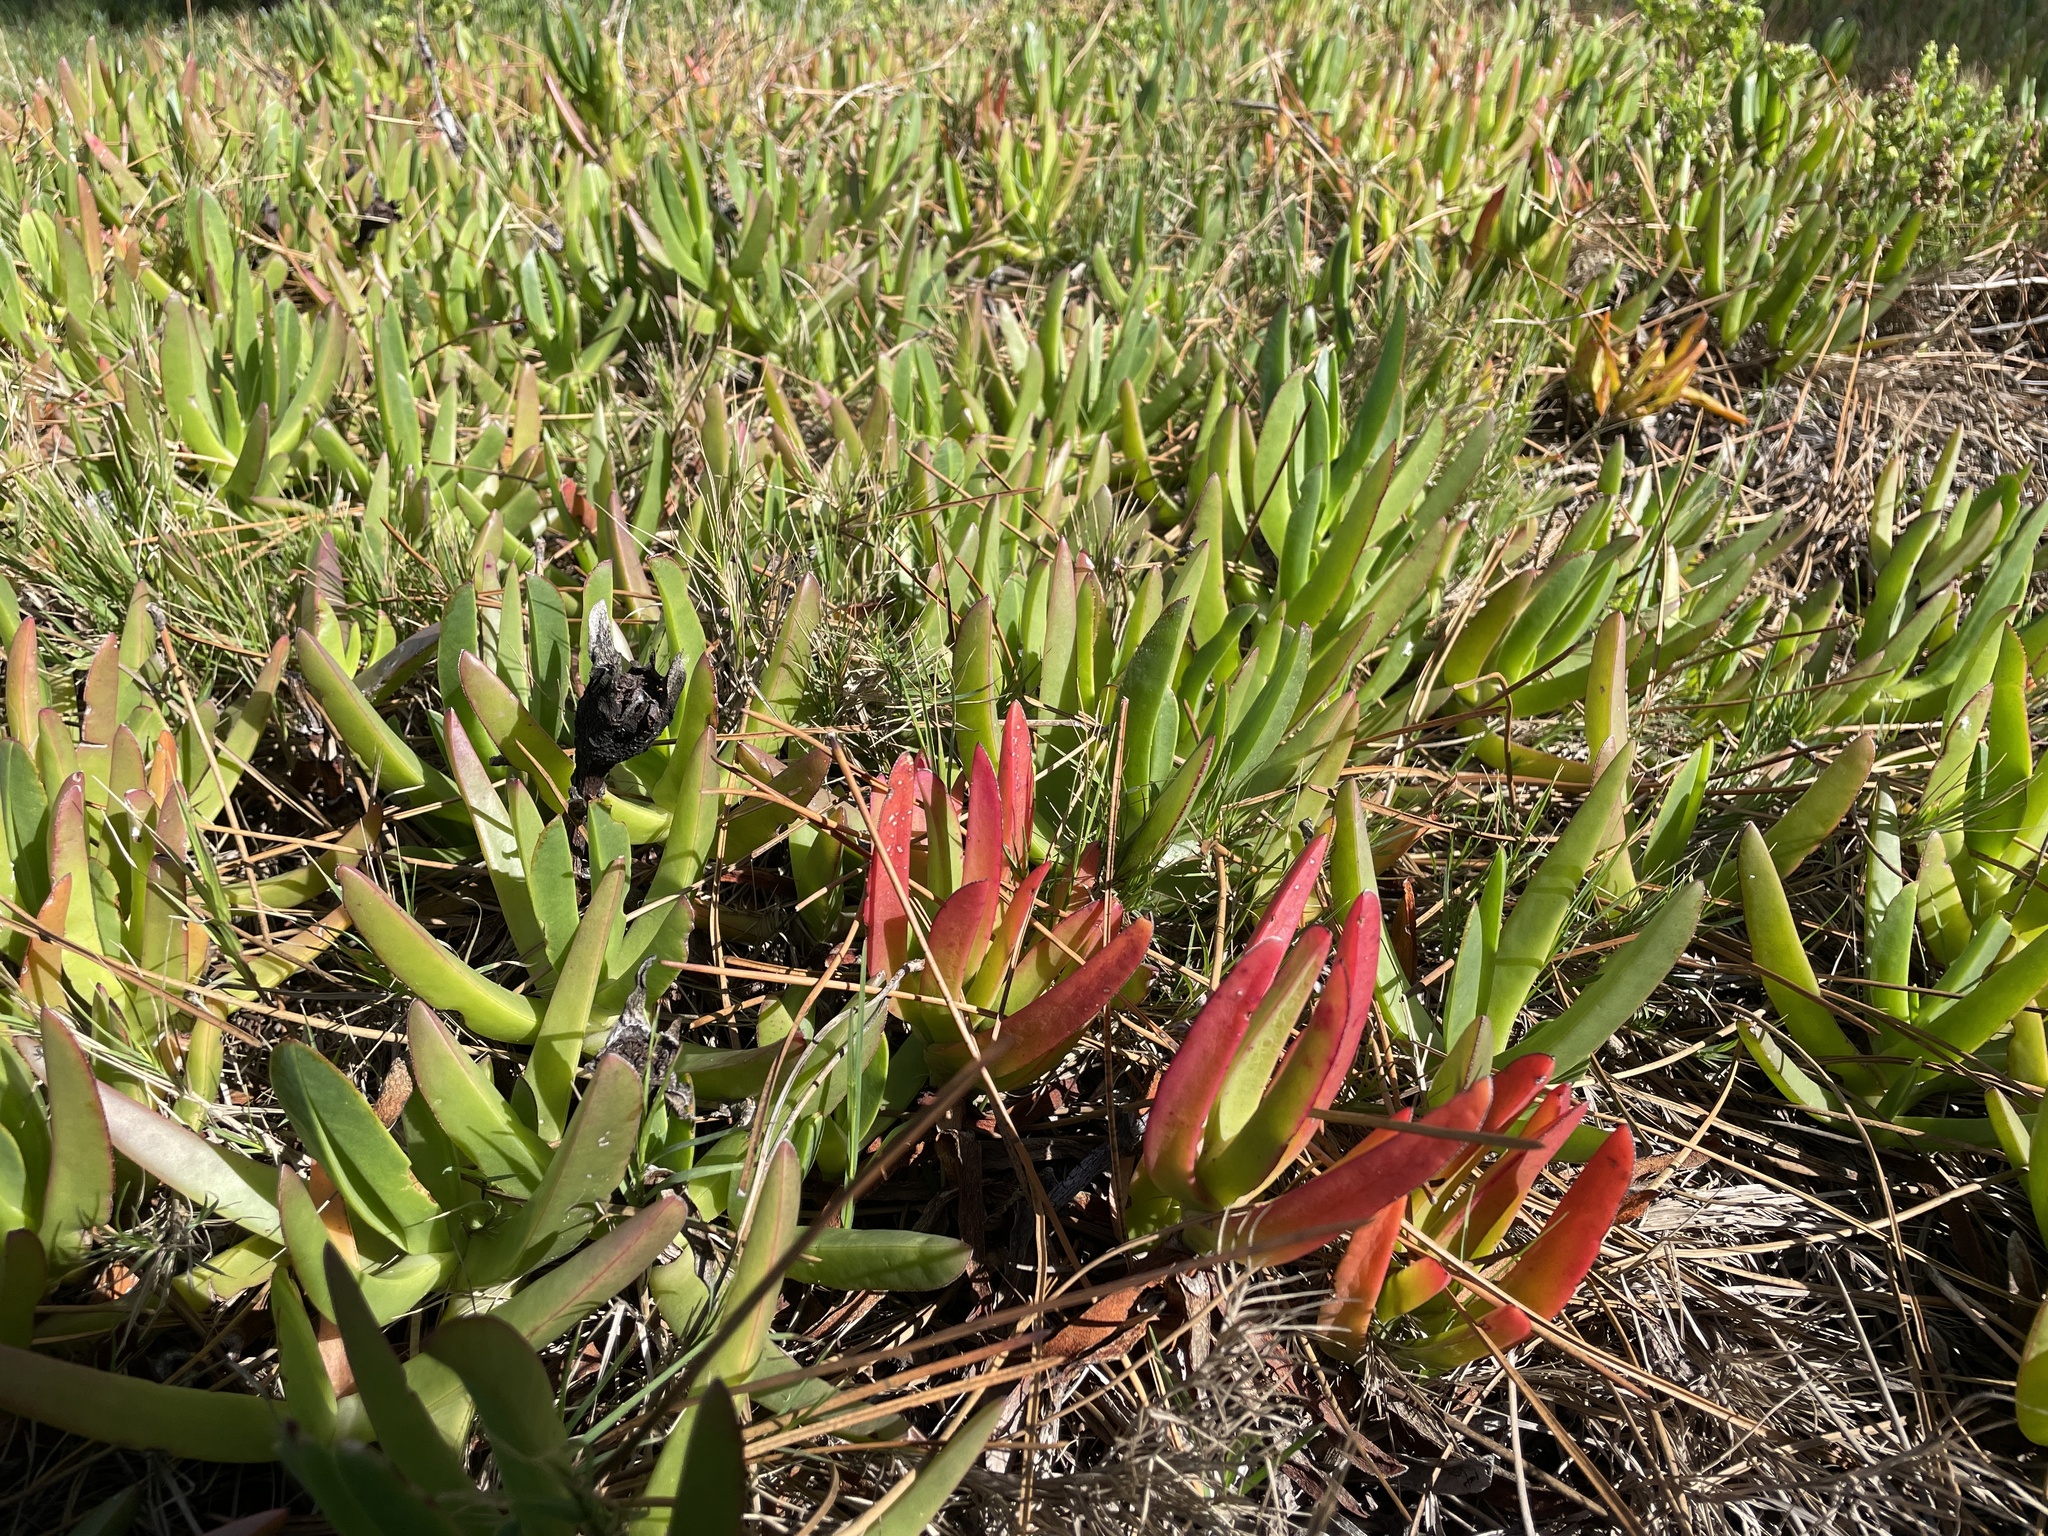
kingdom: Plantae
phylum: Tracheophyta
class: Magnoliopsida
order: Caryophyllales
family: Aizoaceae
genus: Carpobrotus
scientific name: Carpobrotus edulis
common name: Hottentot-fig
